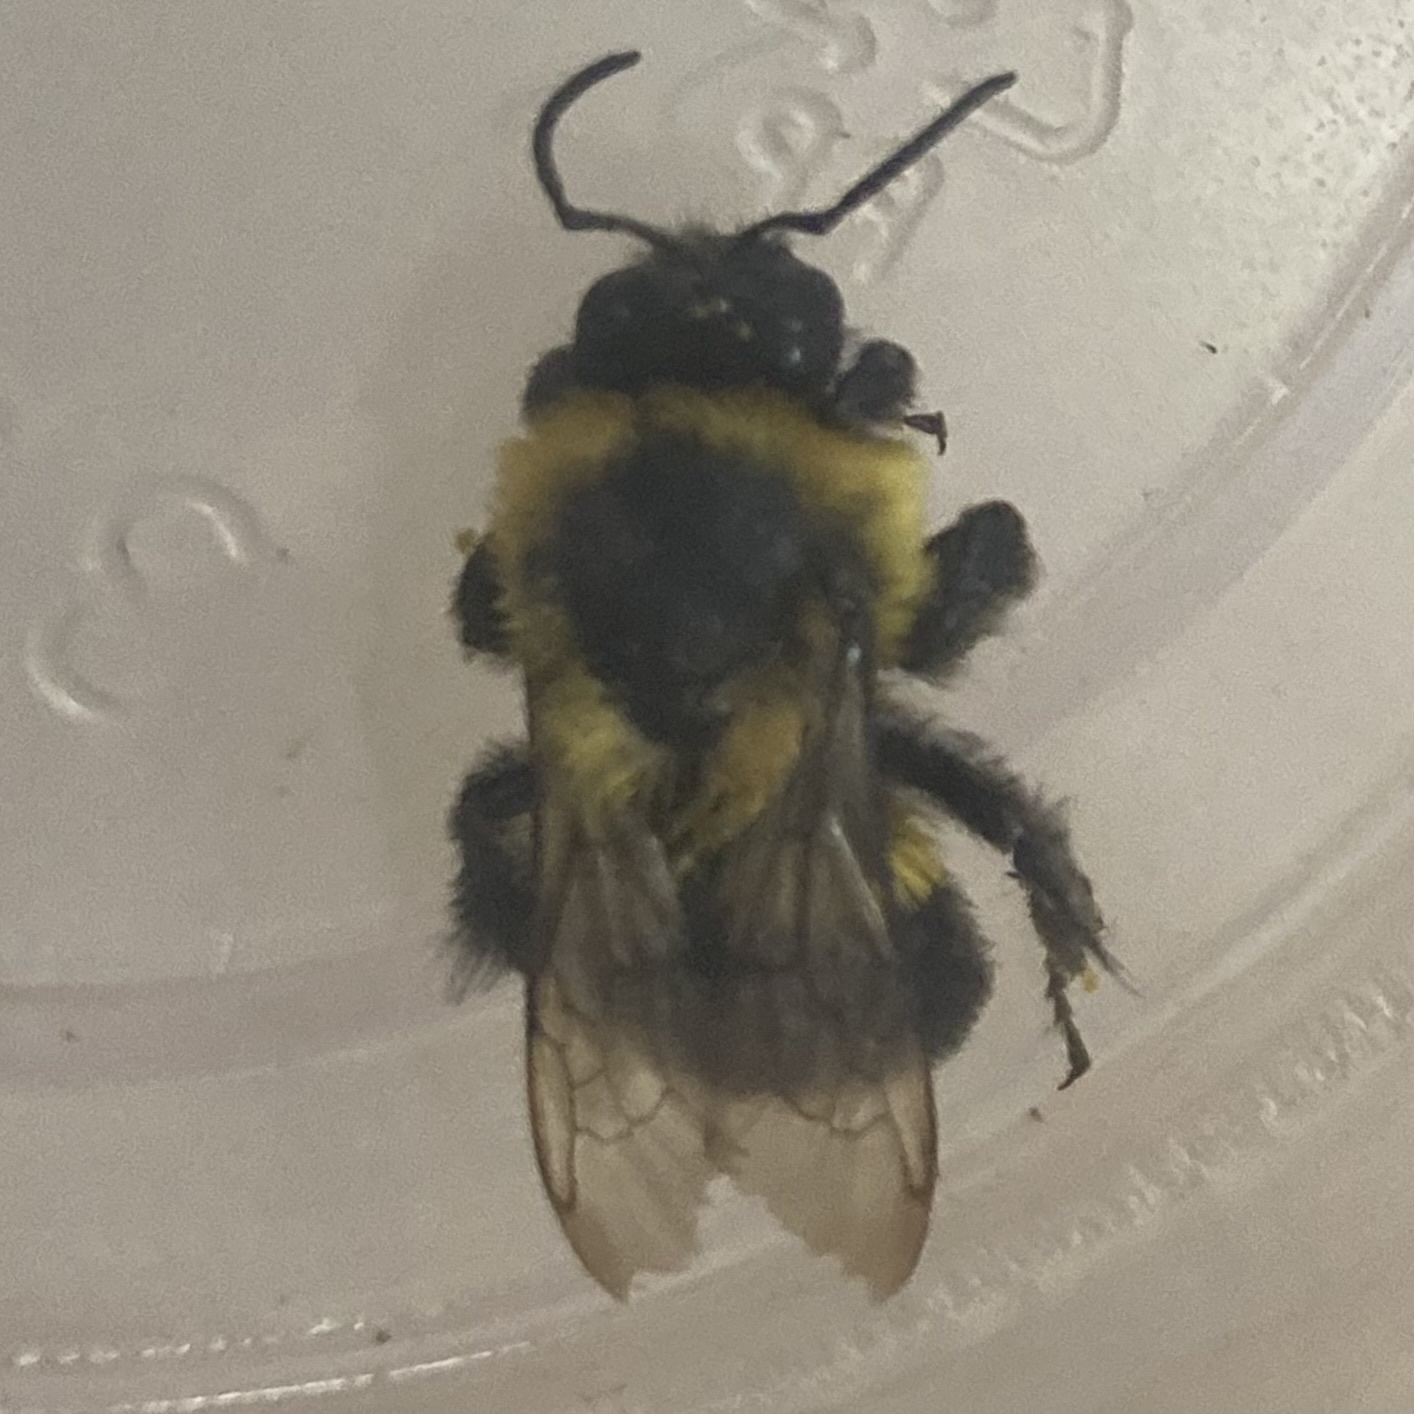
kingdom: Animalia
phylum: Arthropoda
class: Insecta
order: Hymenoptera
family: Apidae
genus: Bombus
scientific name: Bombus impatiens
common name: Common eastern bumble bee
